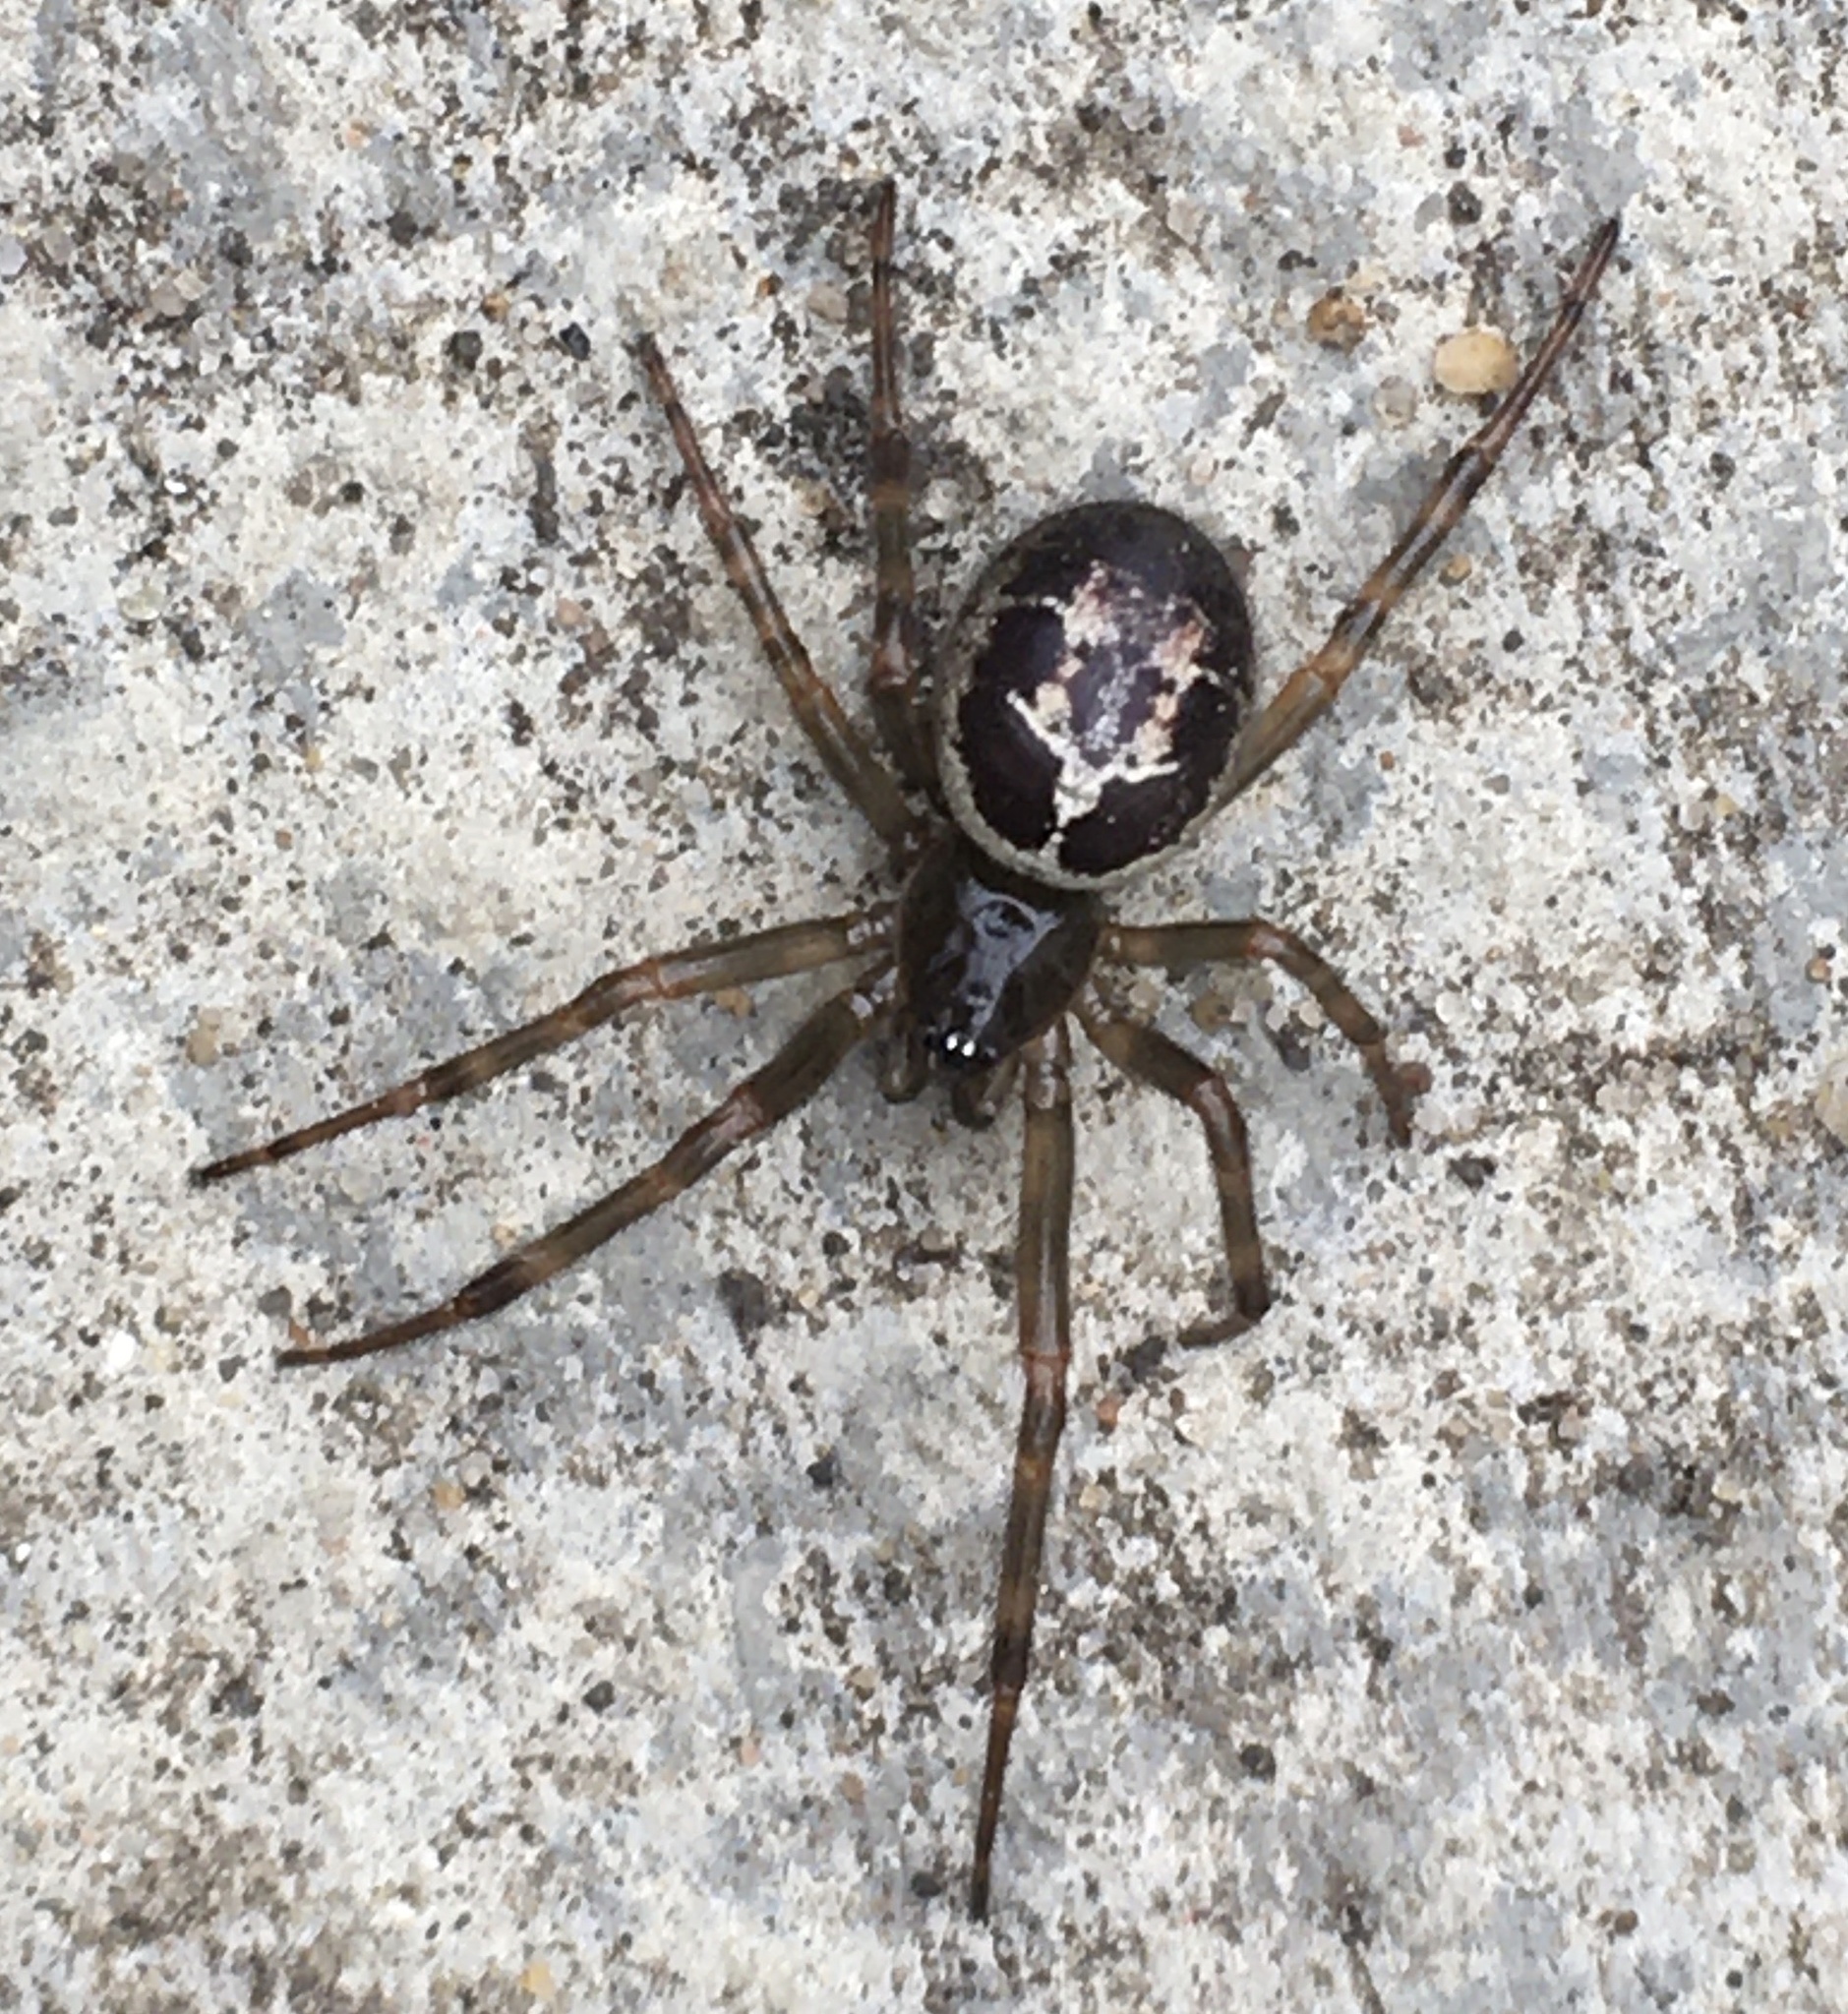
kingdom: Animalia
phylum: Arthropoda
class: Arachnida
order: Araneae
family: Theridiidae
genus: Steatoda
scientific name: Steatoda nobilis
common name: Cobweb weaver
